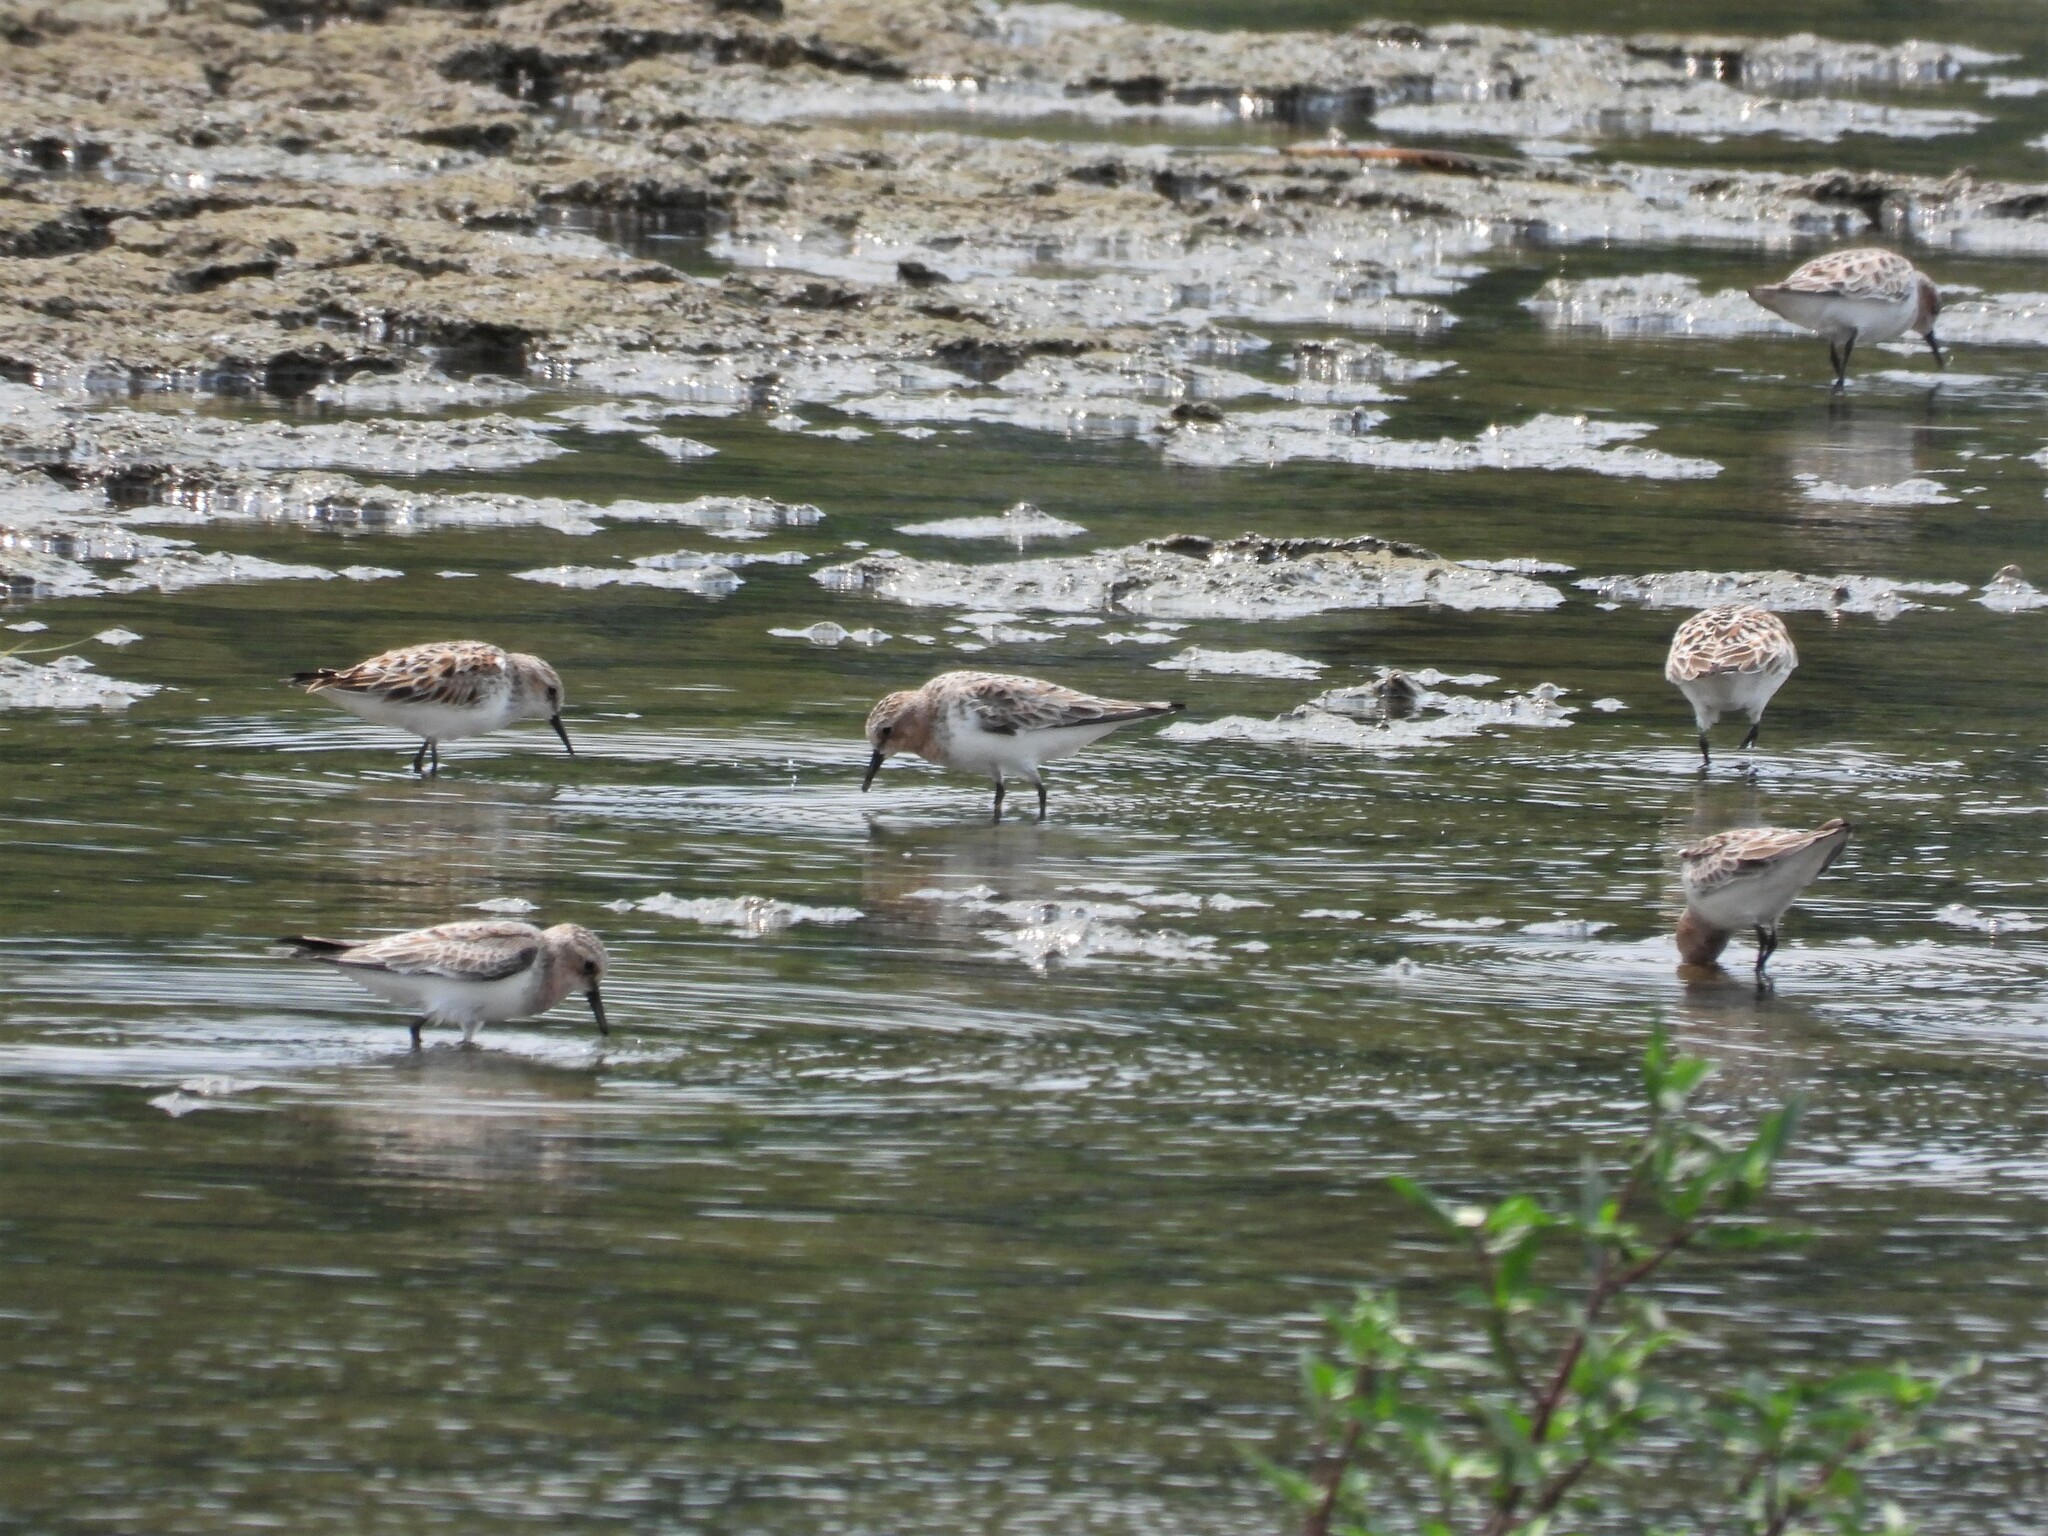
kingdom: Animalia
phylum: Chordata
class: Aves
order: Charadriiformes
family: Scolopacidae
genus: Calidris
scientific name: Calidris ruficollis
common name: Red-necked stint
